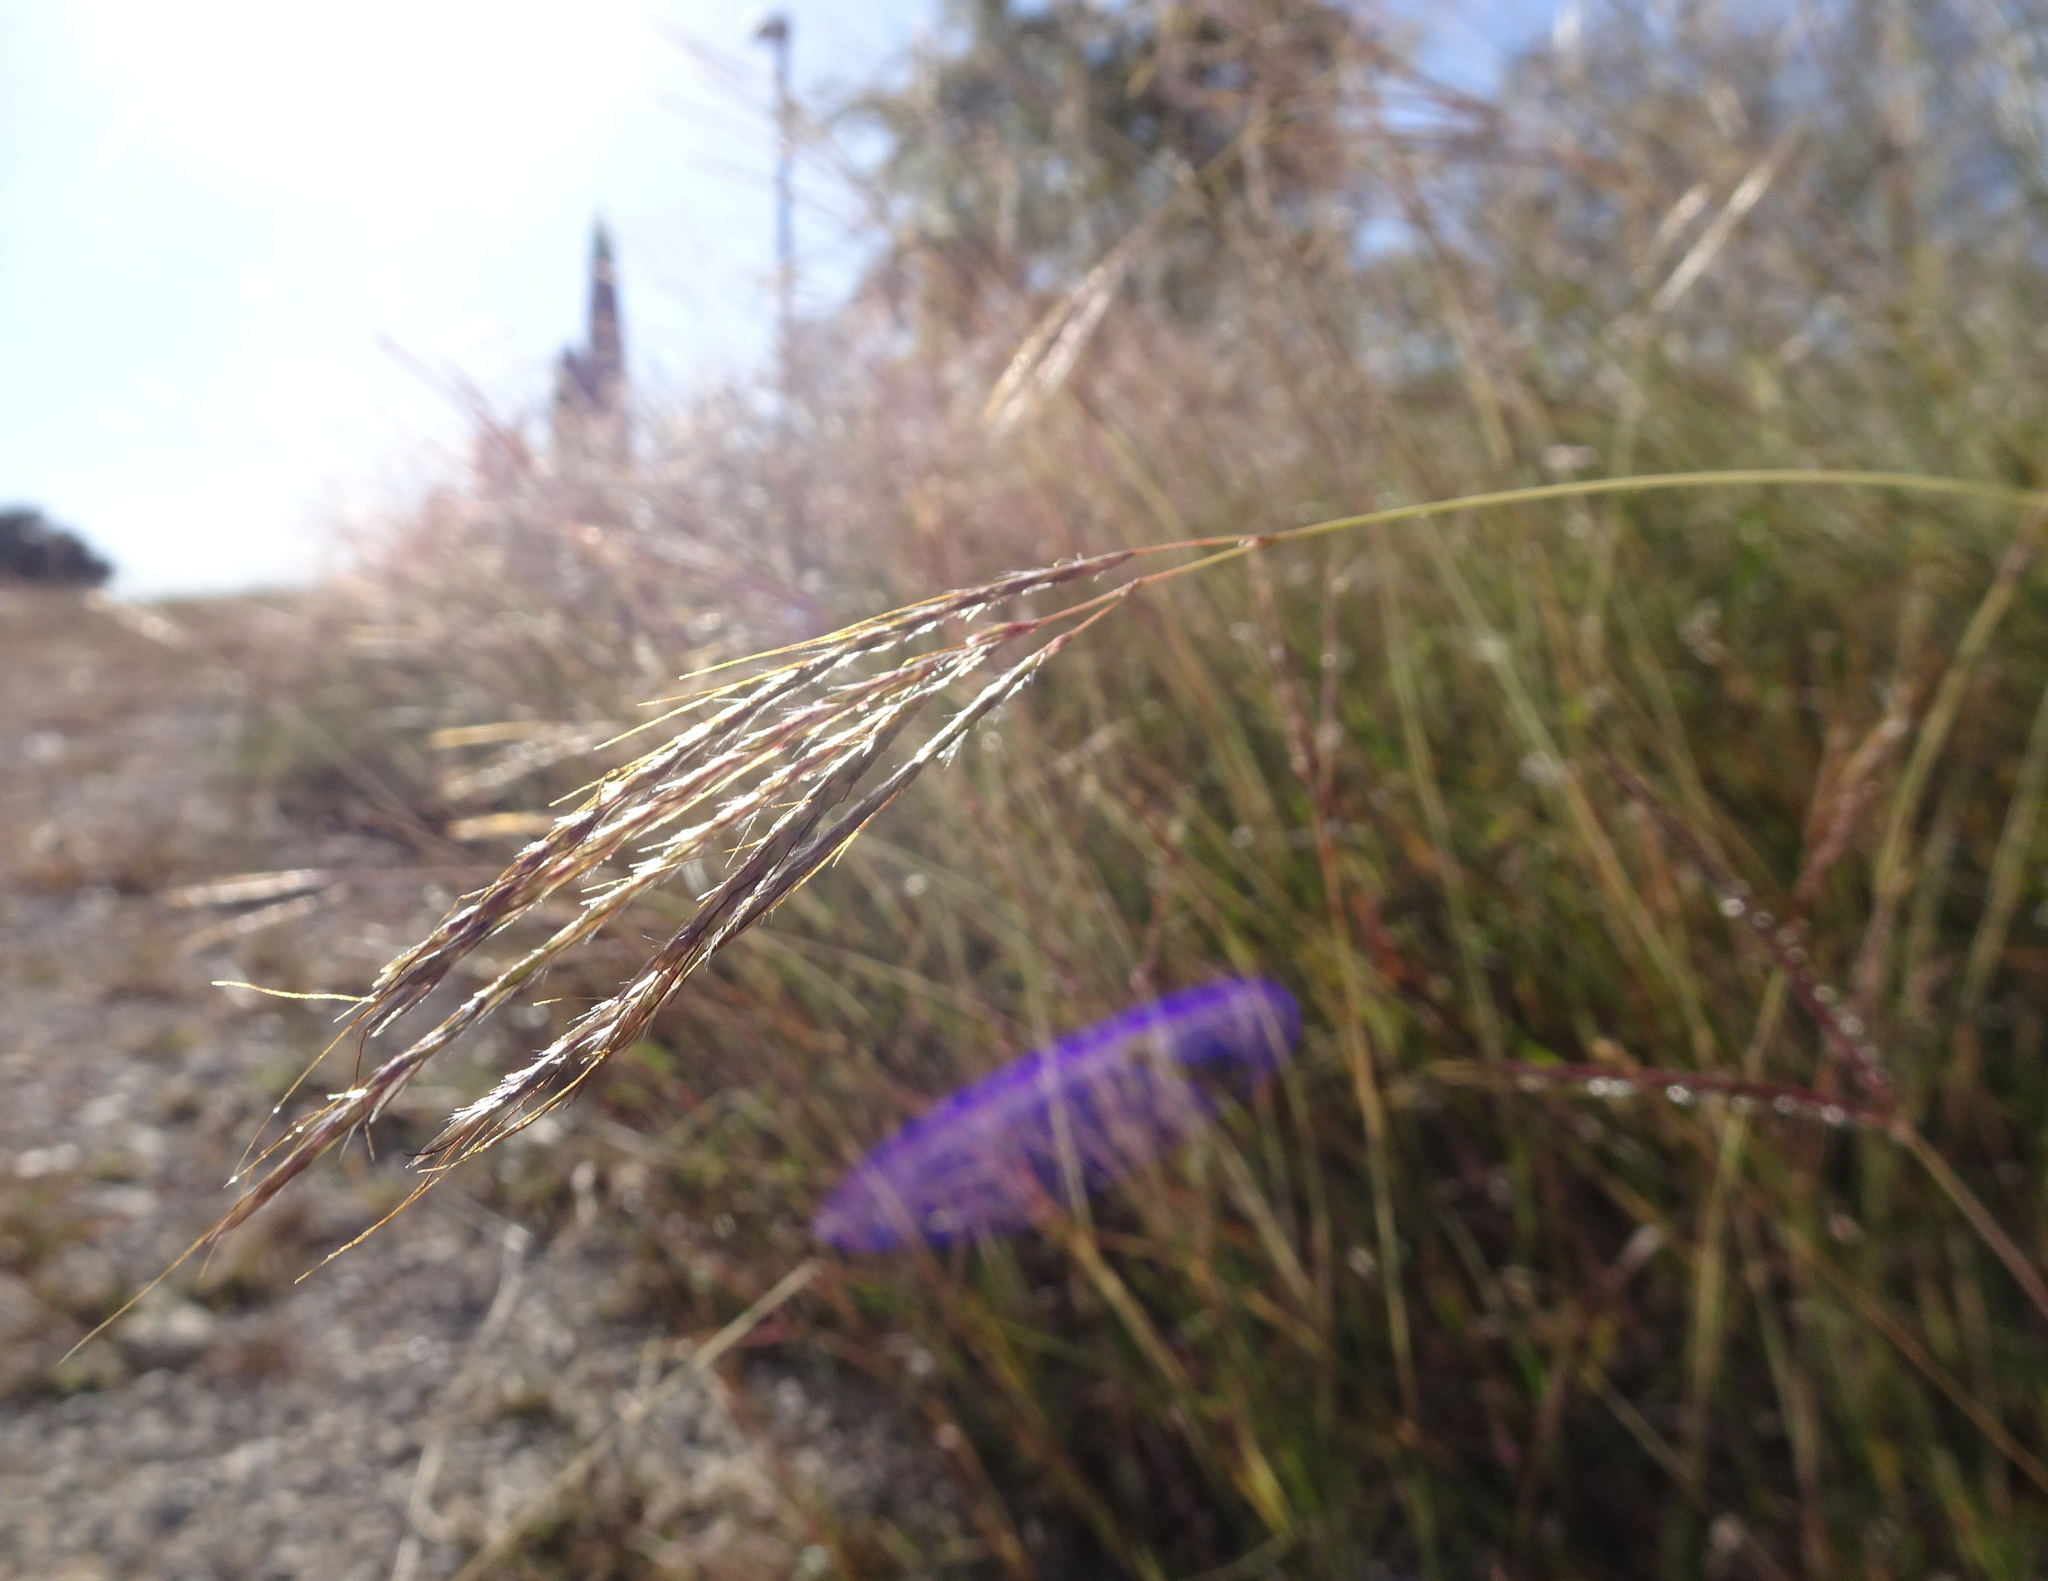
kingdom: Plantae
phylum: Tracheophyta
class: Liliopsida
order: Poales
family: Poaceae
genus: Bothriochloa
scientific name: Bothriochloa ischaemum
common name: Yellow bluestem
